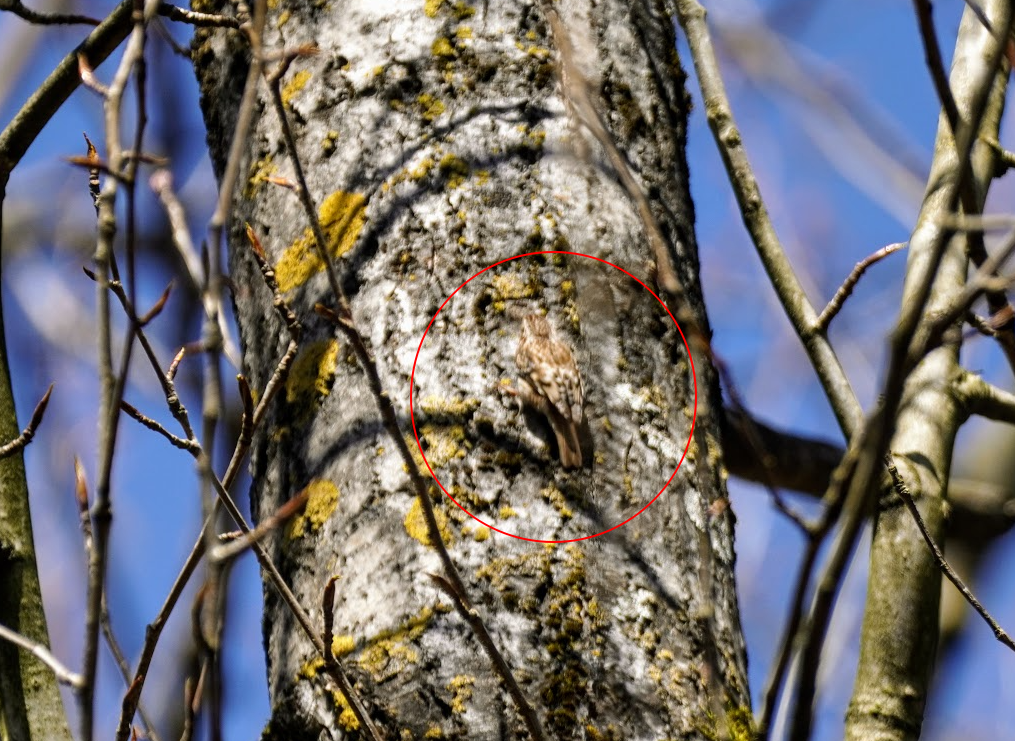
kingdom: Animalia
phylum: Chordata
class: Aves
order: Passeriformes
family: Certhiidae
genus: Certhia
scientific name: Certhia americana
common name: Brown creeper
